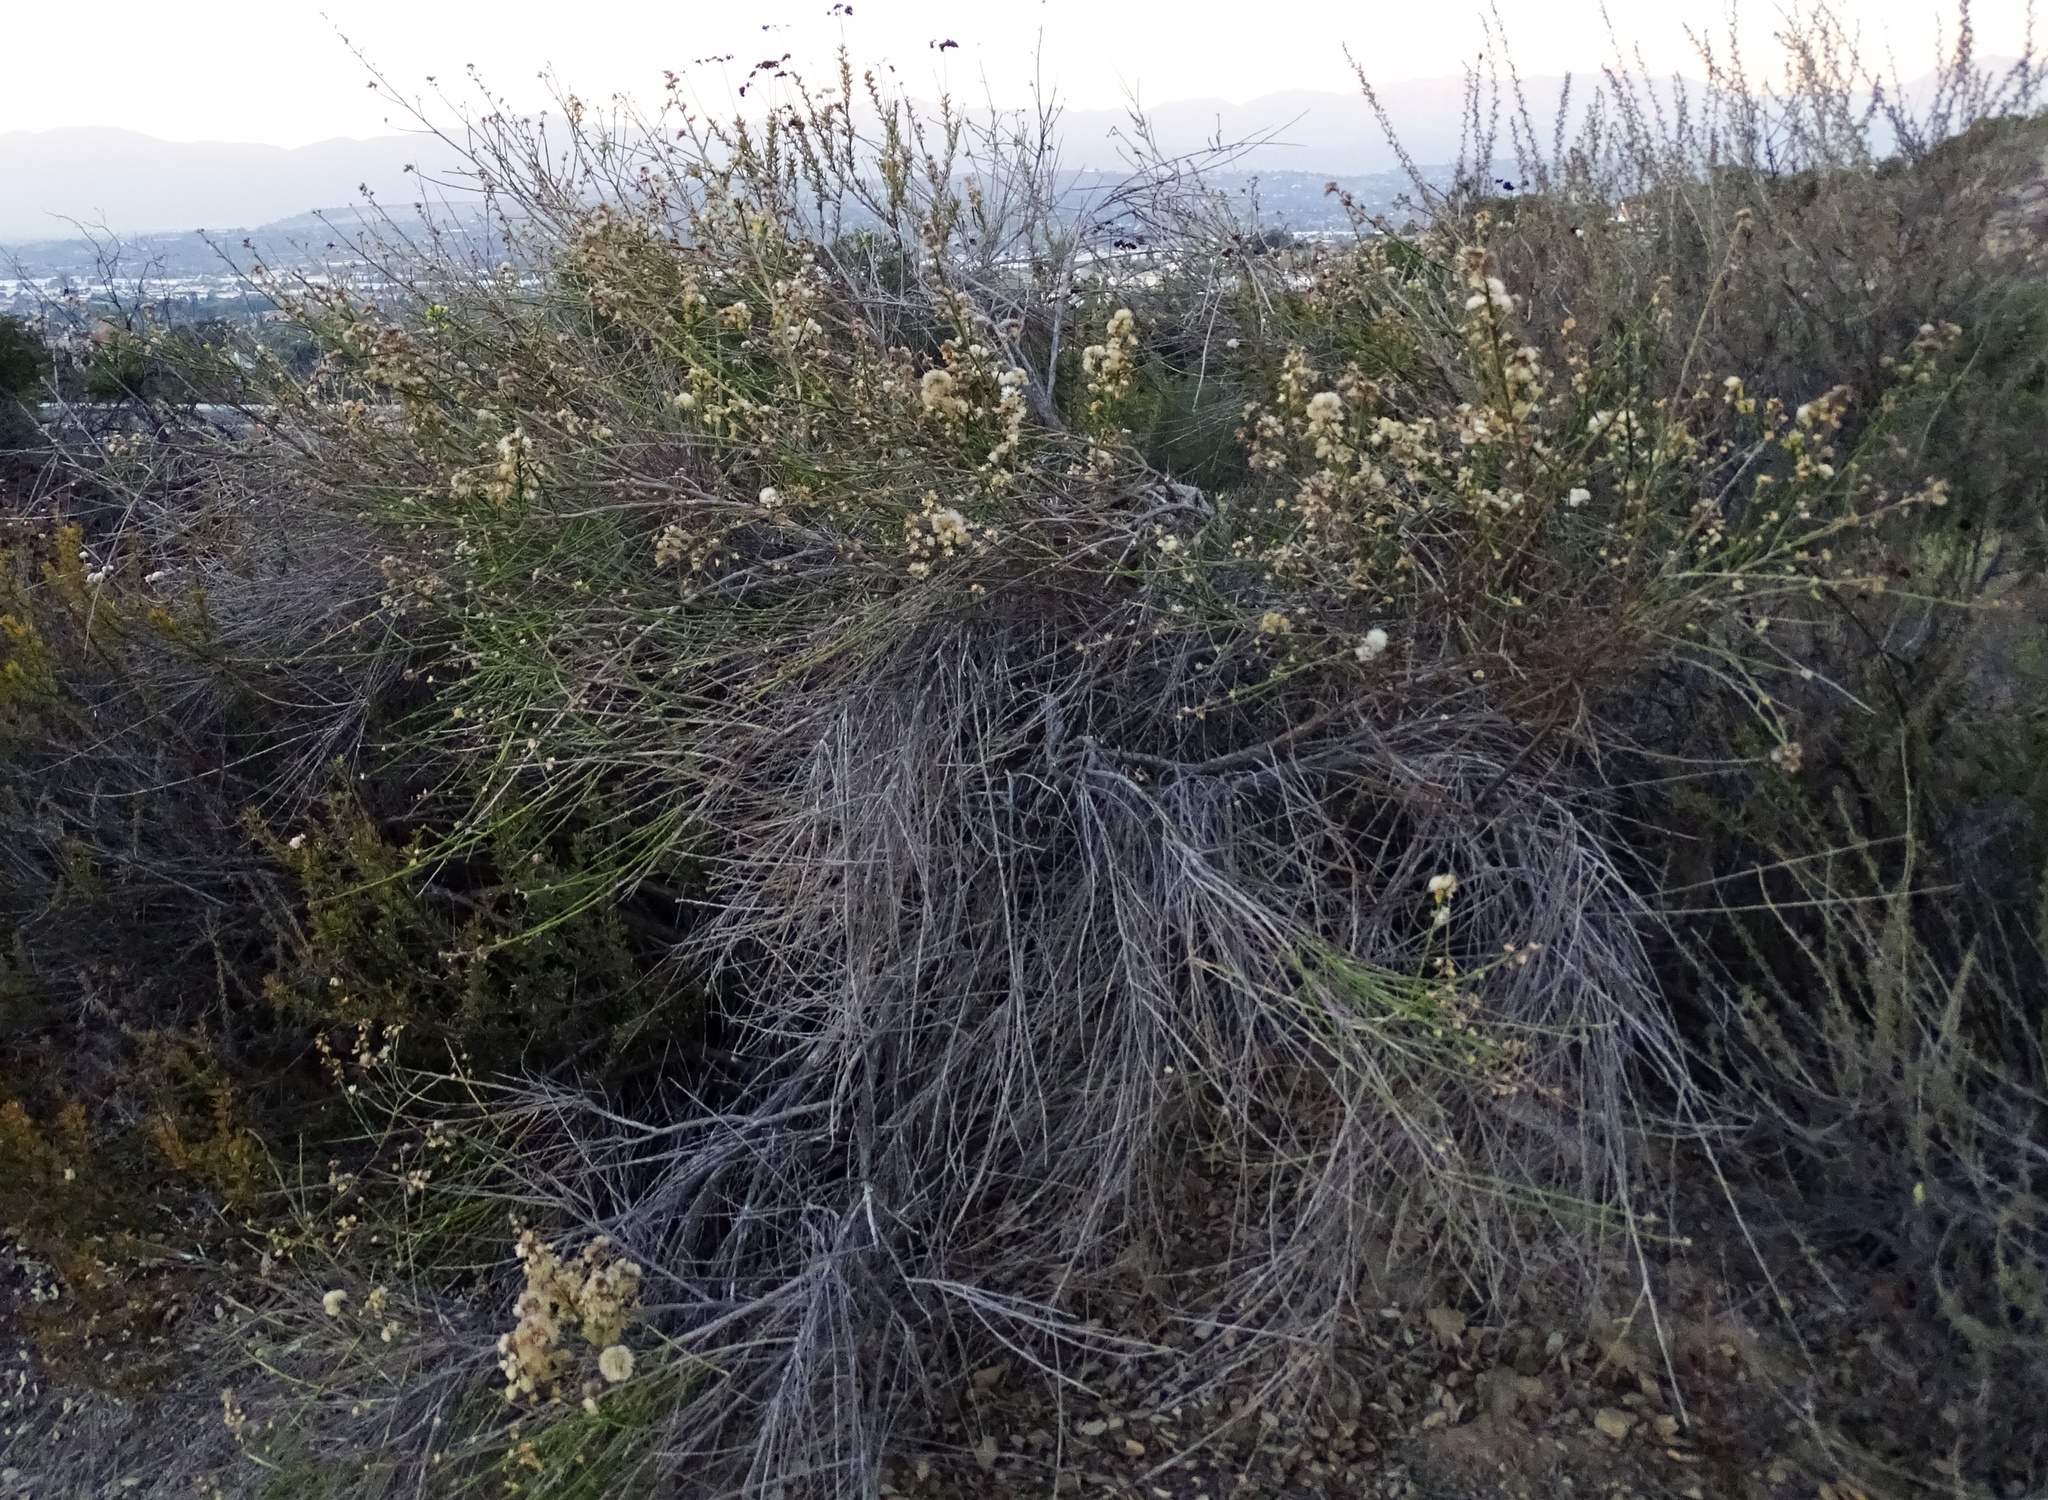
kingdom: Plantae
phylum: Tracheophyta
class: Magnoliopsida
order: Asterales
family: Asteraceae
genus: Lepidospartum
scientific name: Lepidospartum squamatum
